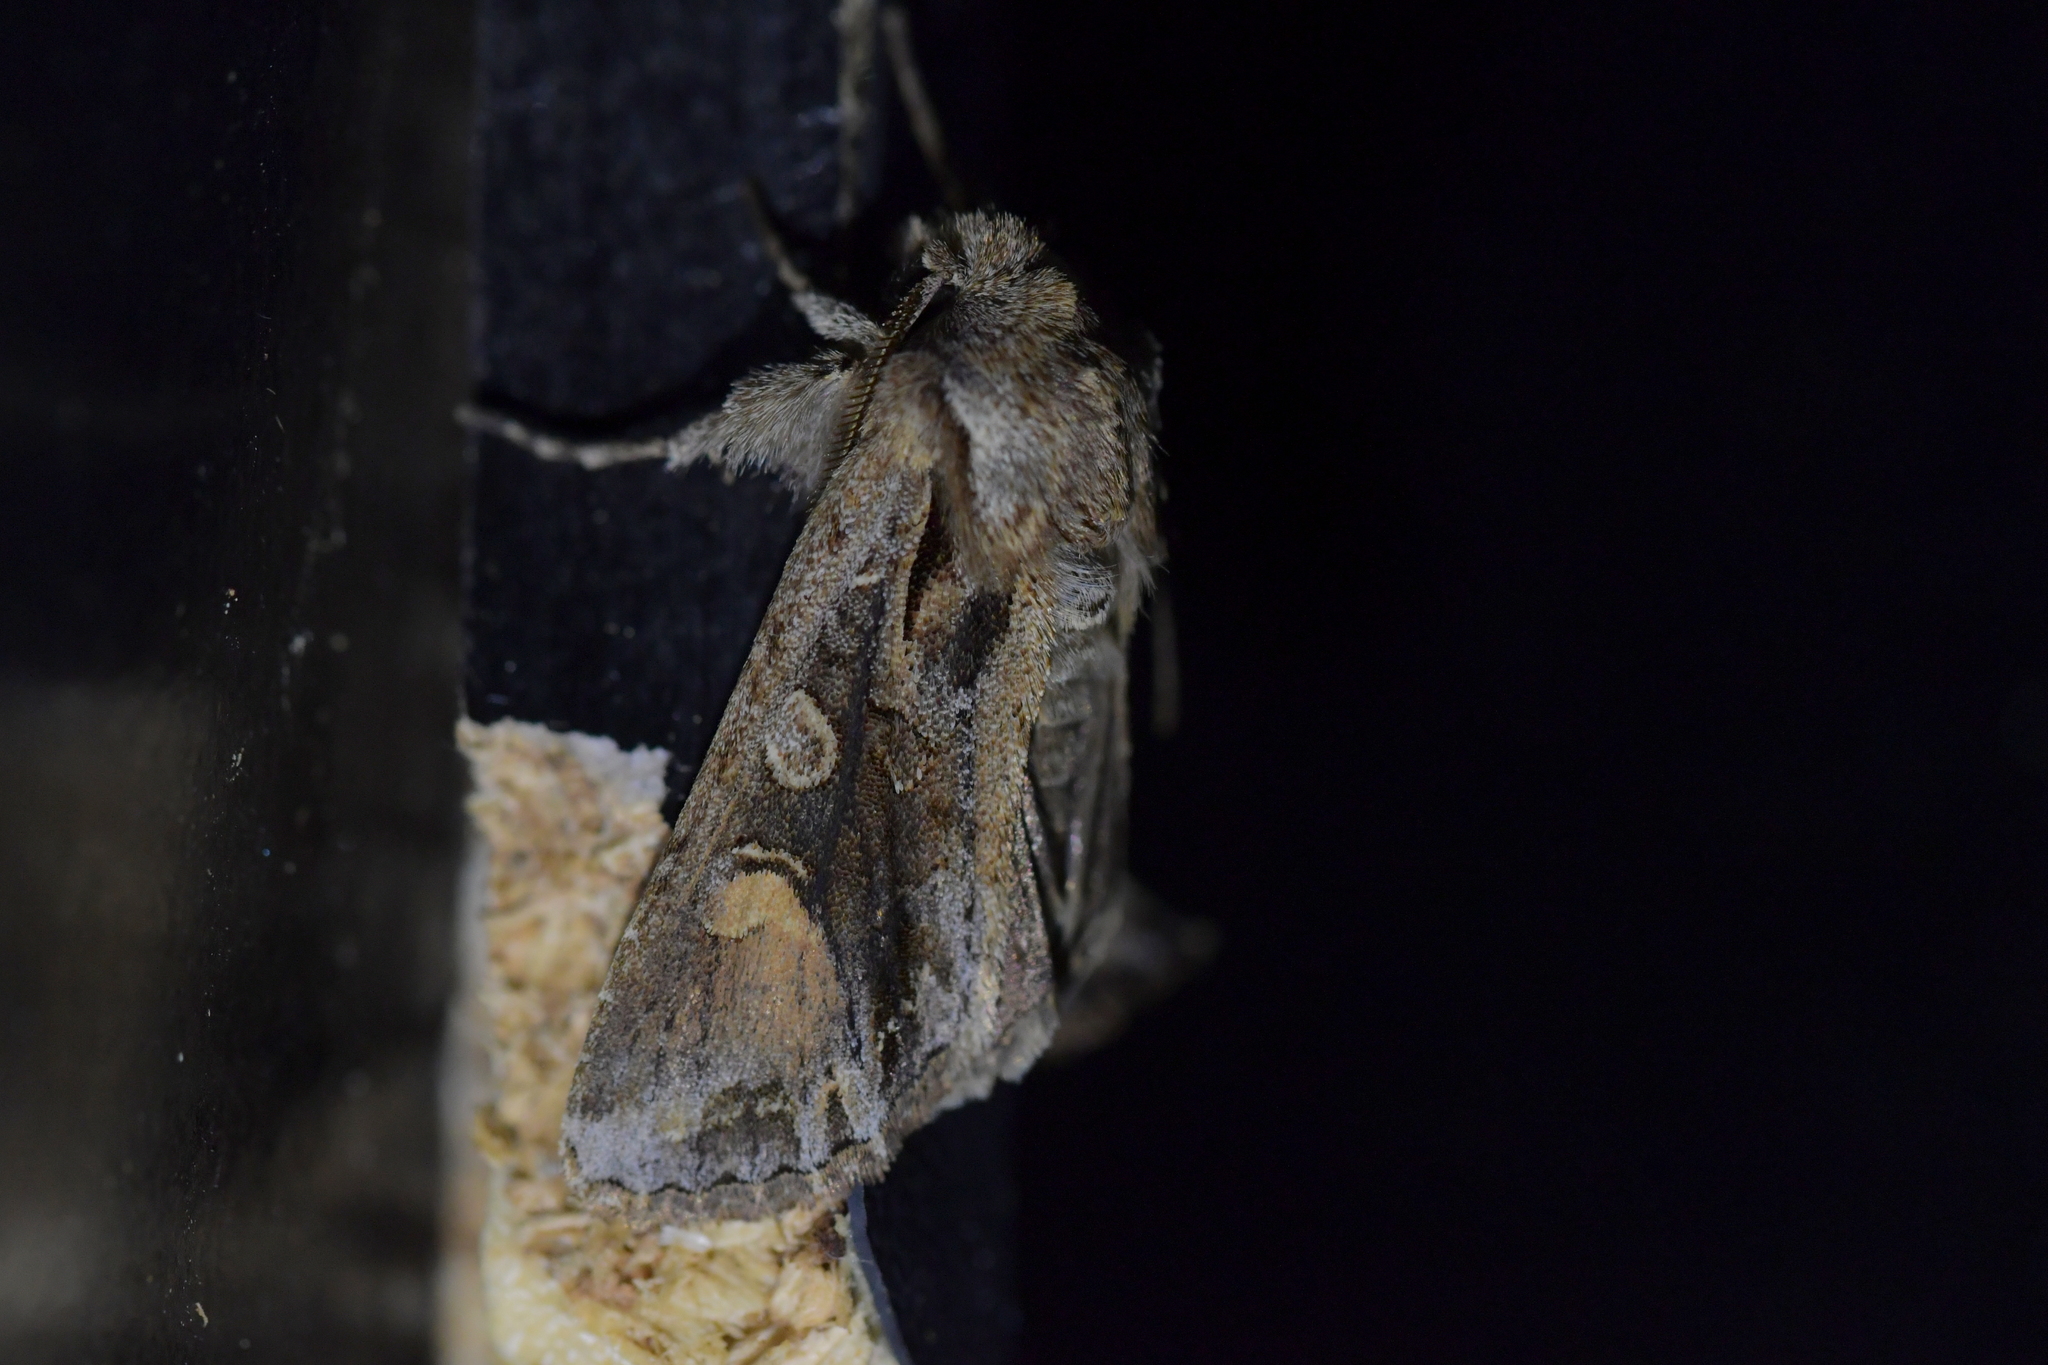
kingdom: Animalia
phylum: Arthropoda
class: Insecta
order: Lepidoptera
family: Noctuidae
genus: Ichneutica
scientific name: Ichneutica
